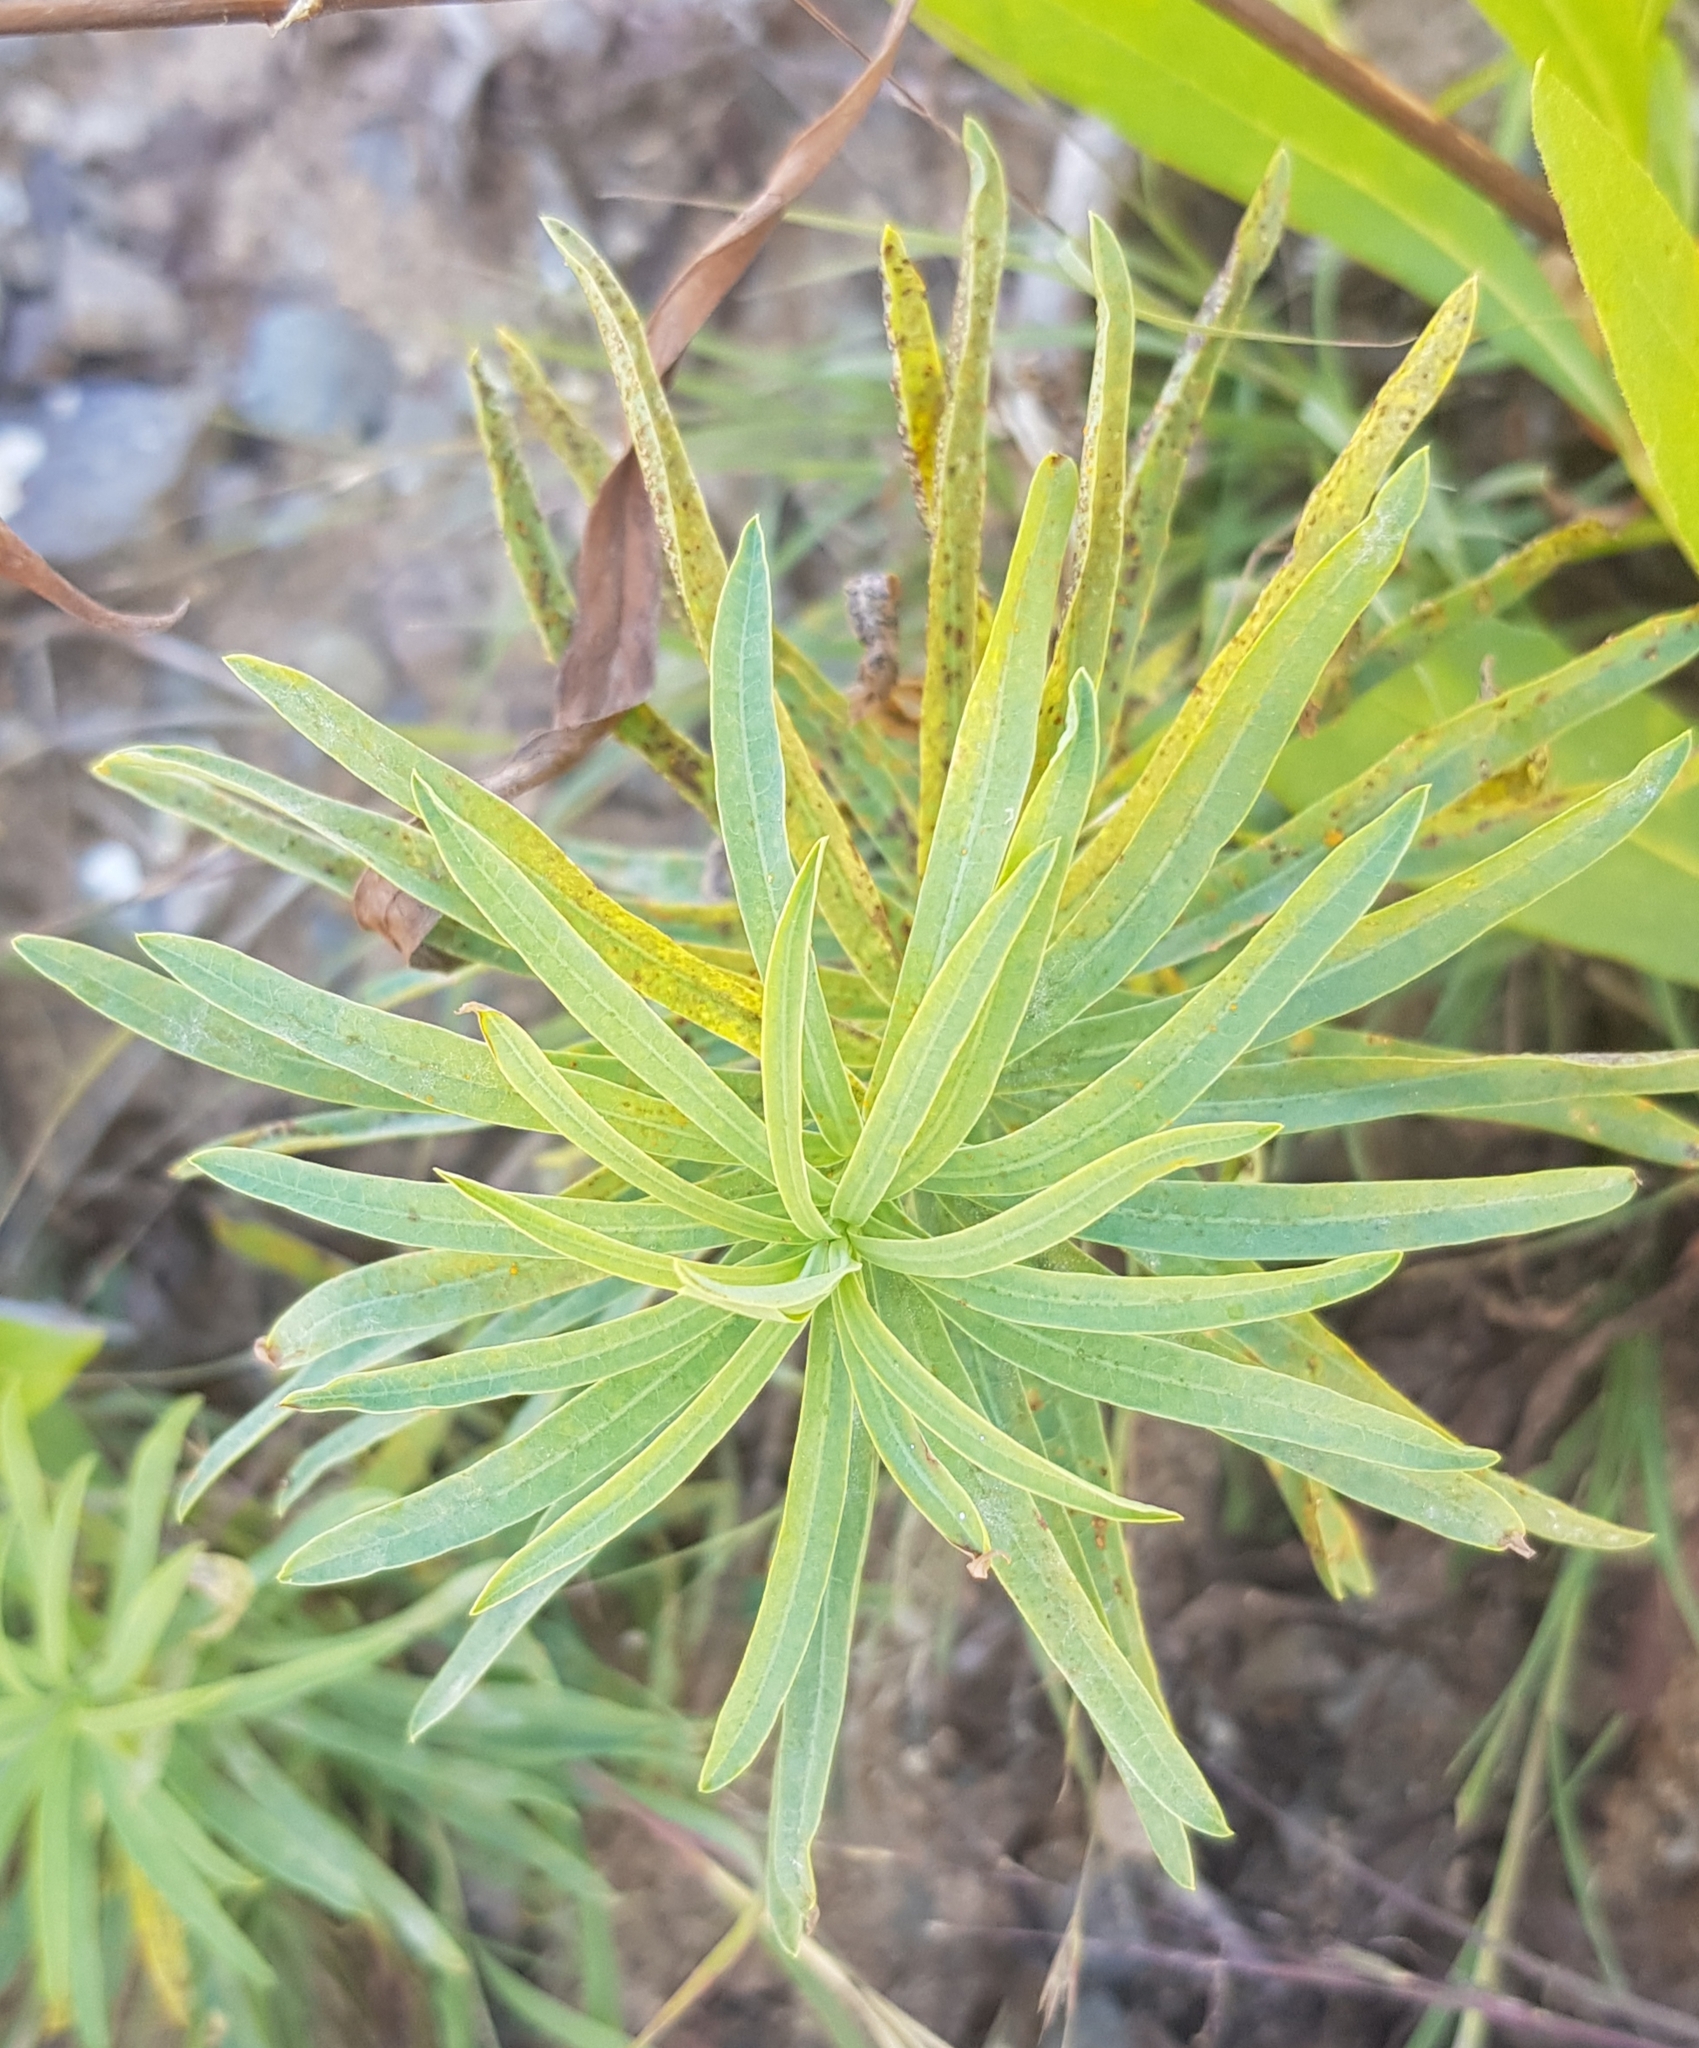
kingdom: Plantae
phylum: Tracheophyta
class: Magnoliopsida
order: Malpighiales
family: Euphorbiaceae
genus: Euphorbia
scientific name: Euphorbia esula
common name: Leafy spurge
